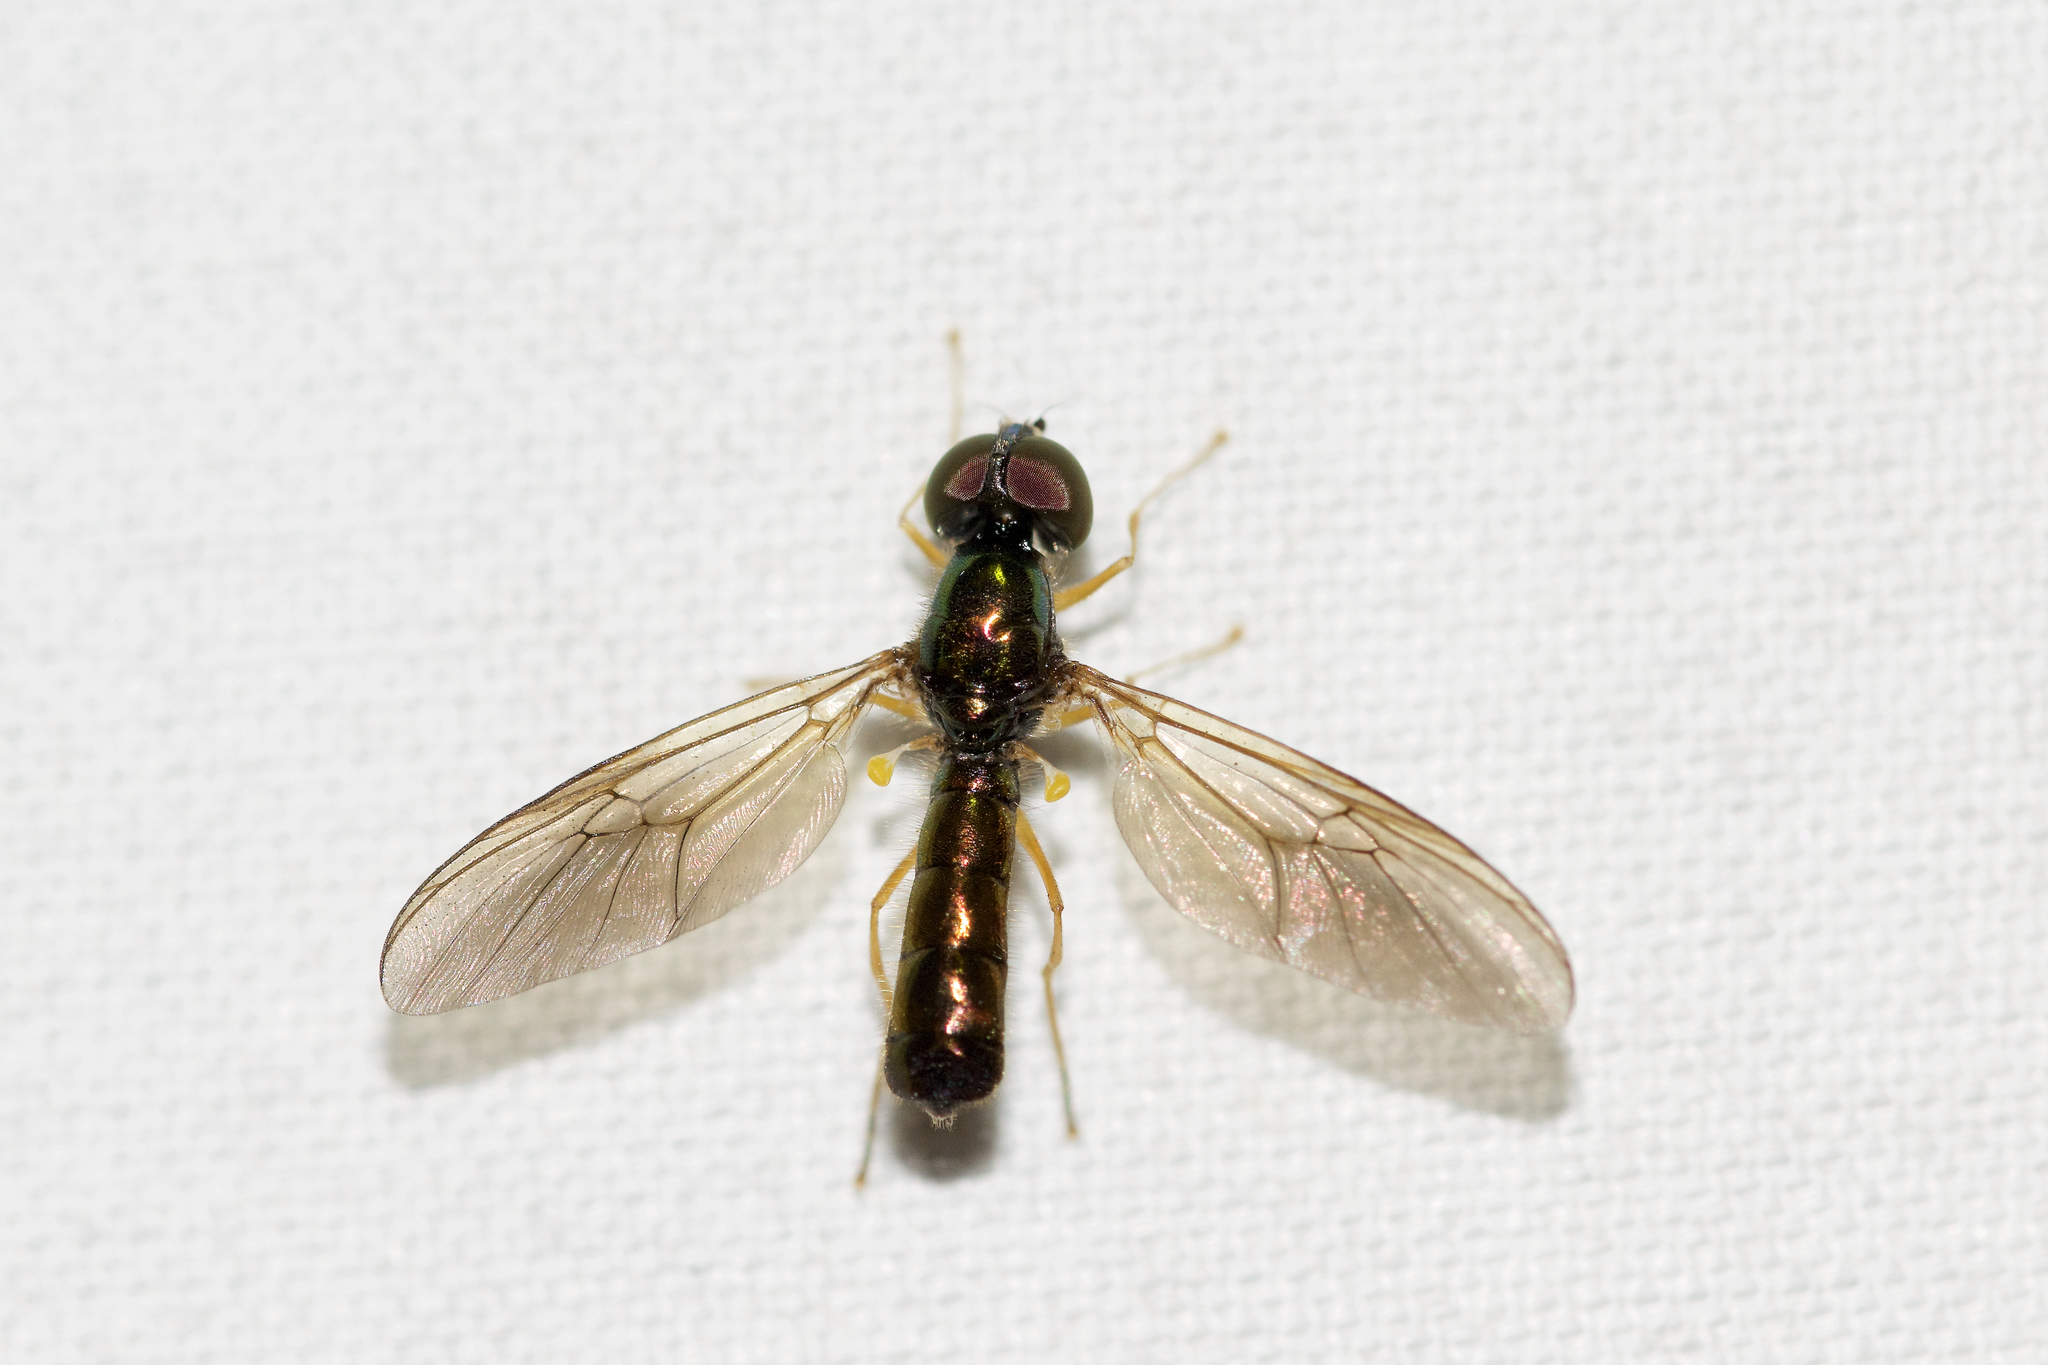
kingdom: Animalia
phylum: Arthropoda
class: Insecta
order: Diptera
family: Stratiomyidae
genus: Sargus
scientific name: Sargus decorus
